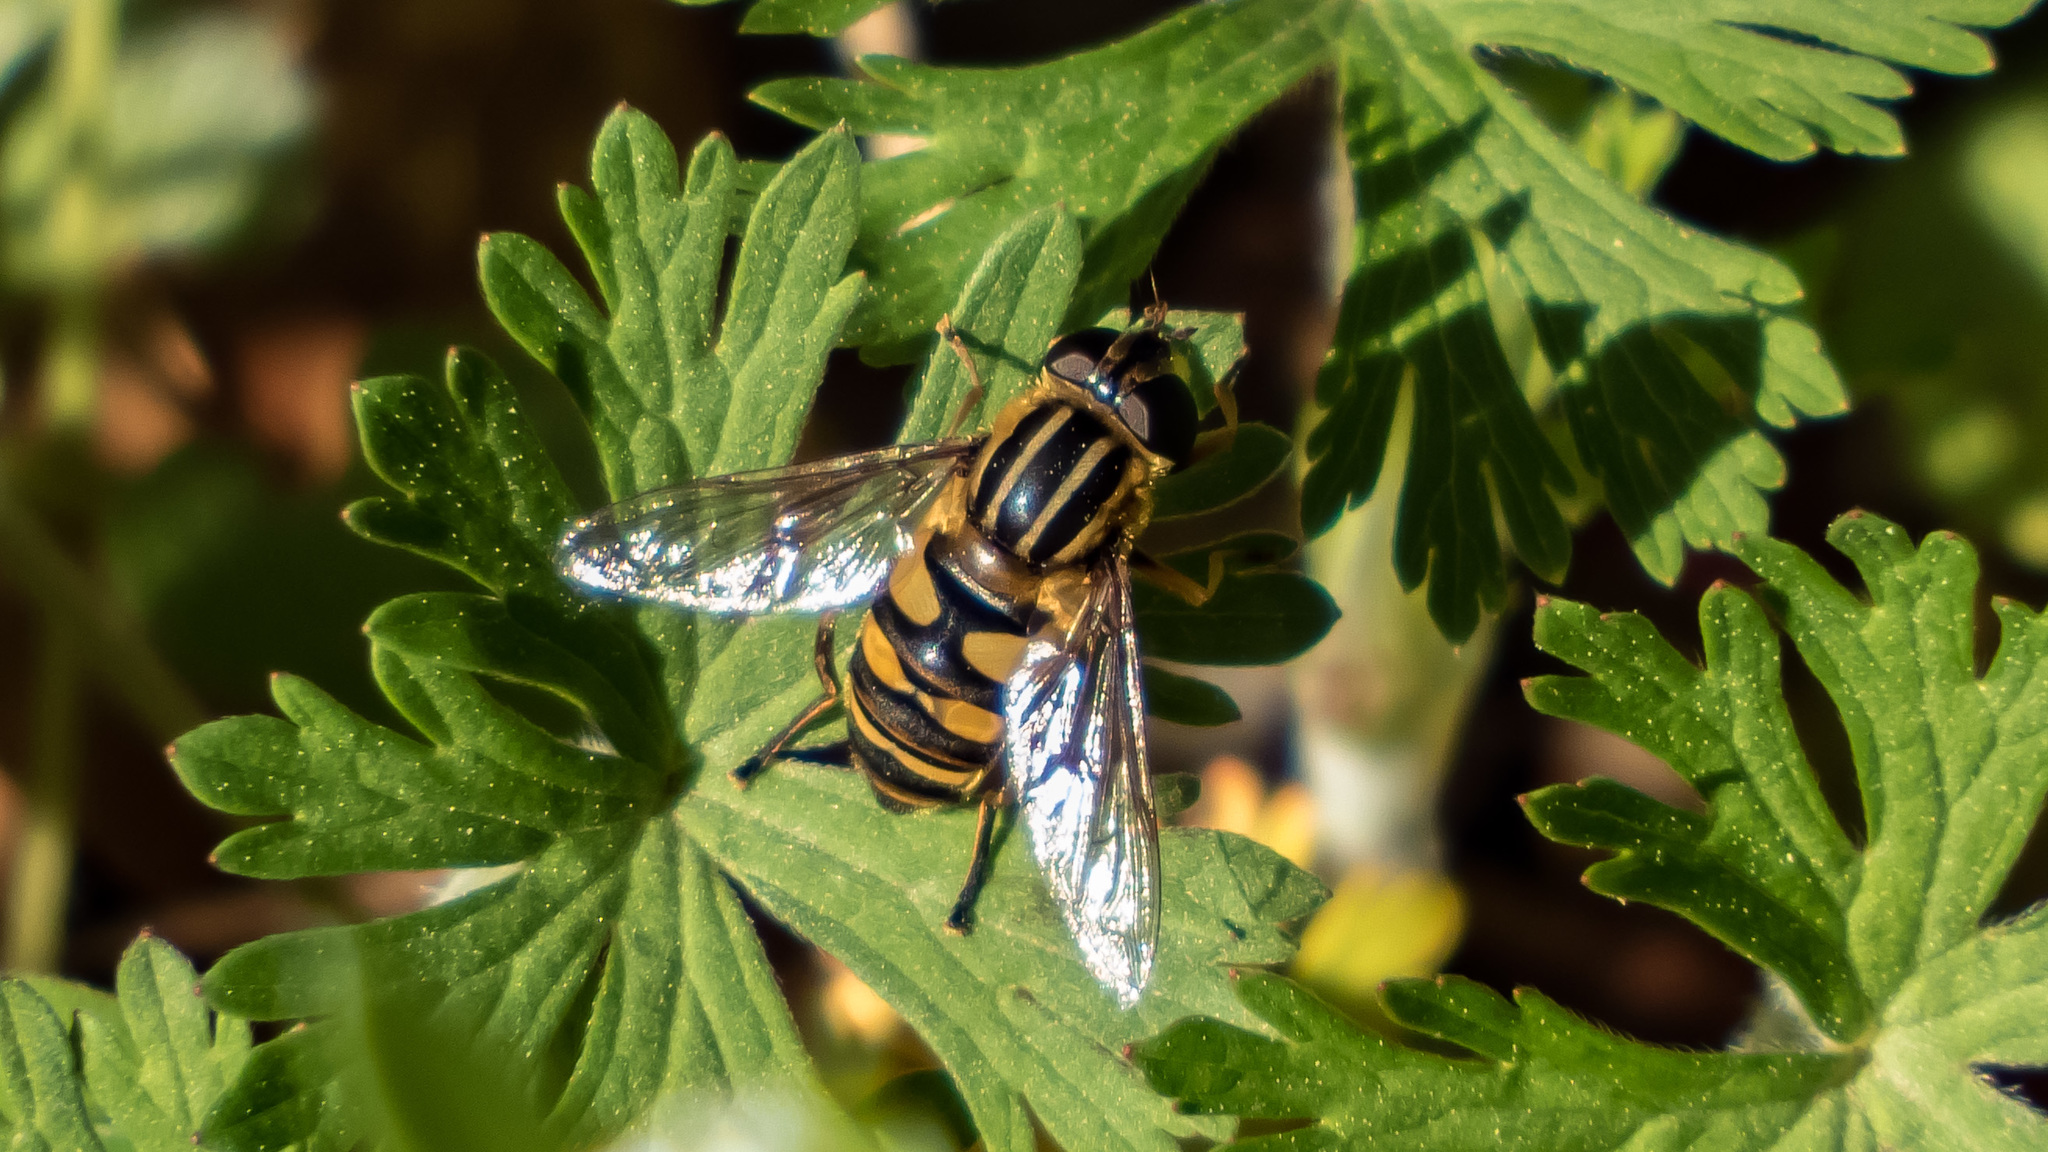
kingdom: Animalia
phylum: Arthropoda
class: Insecta
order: Diptera
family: Syrphidae
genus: Helophilus
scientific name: Helophilus fasciatus
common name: Narrow-headed marsh fly
